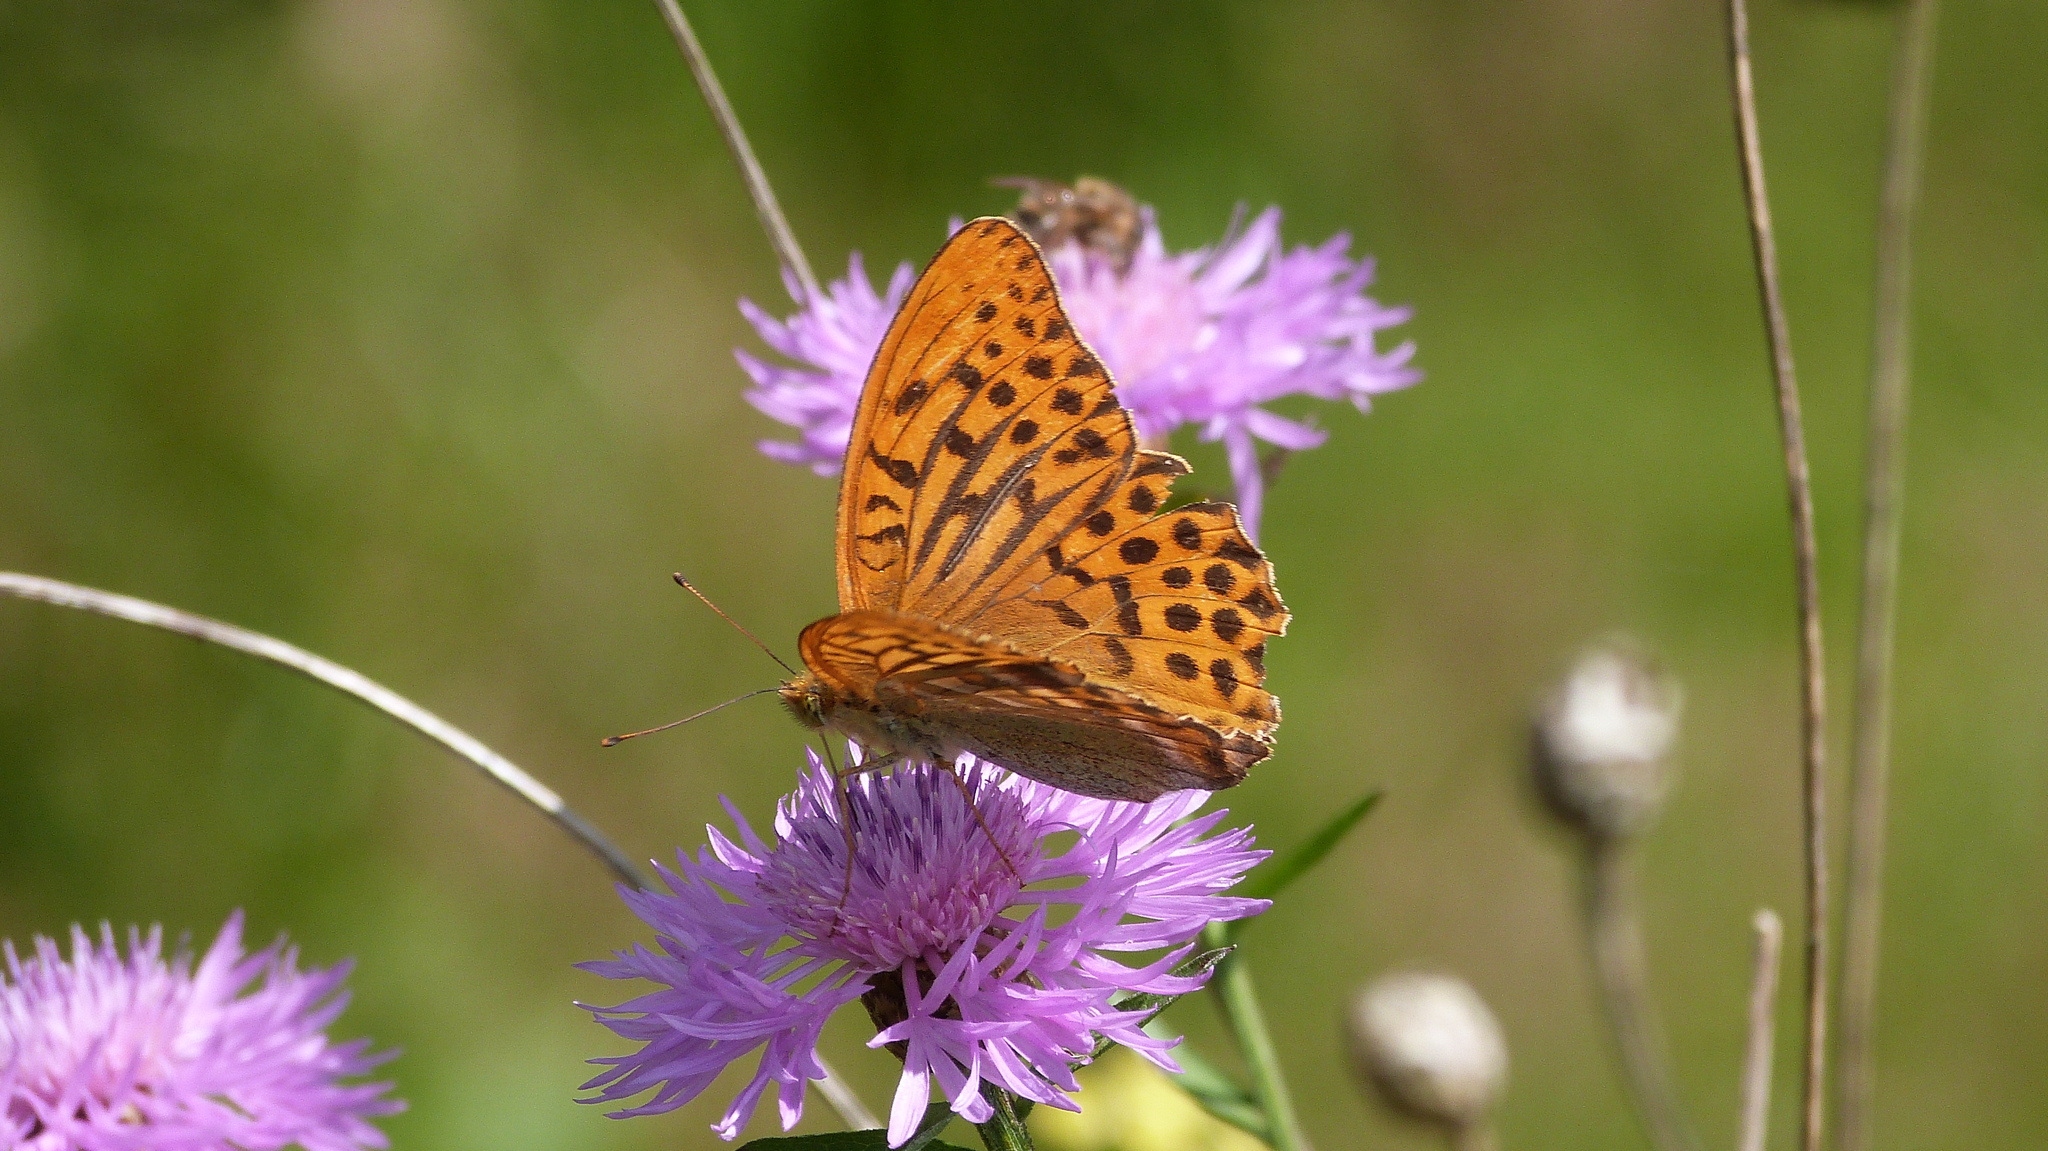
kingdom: Animalia
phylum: Arthropoda
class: Insecta
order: Lepidoptera
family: Nymphalidae
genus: Argynnis
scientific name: Argynnis paphia
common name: Silver-washed fritillary
